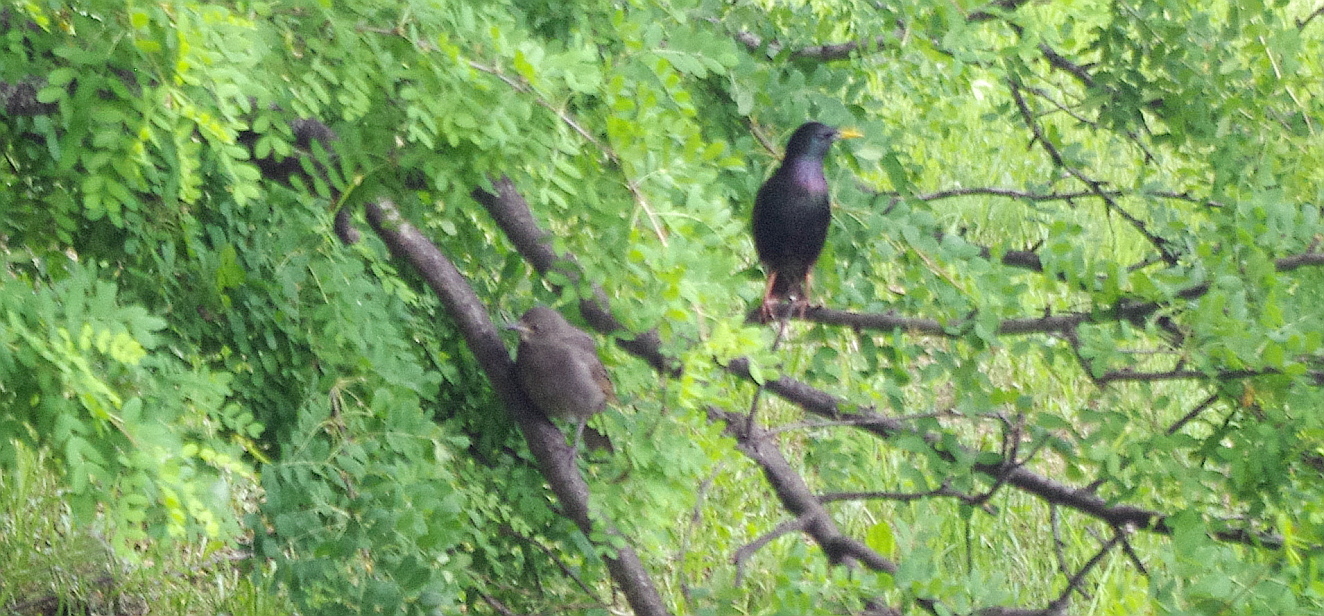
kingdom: Animalia
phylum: Chordata
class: Aves
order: Passeriformes
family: Sturnidae
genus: Sturnus
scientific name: Sturnus vulgaris
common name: Common starling
